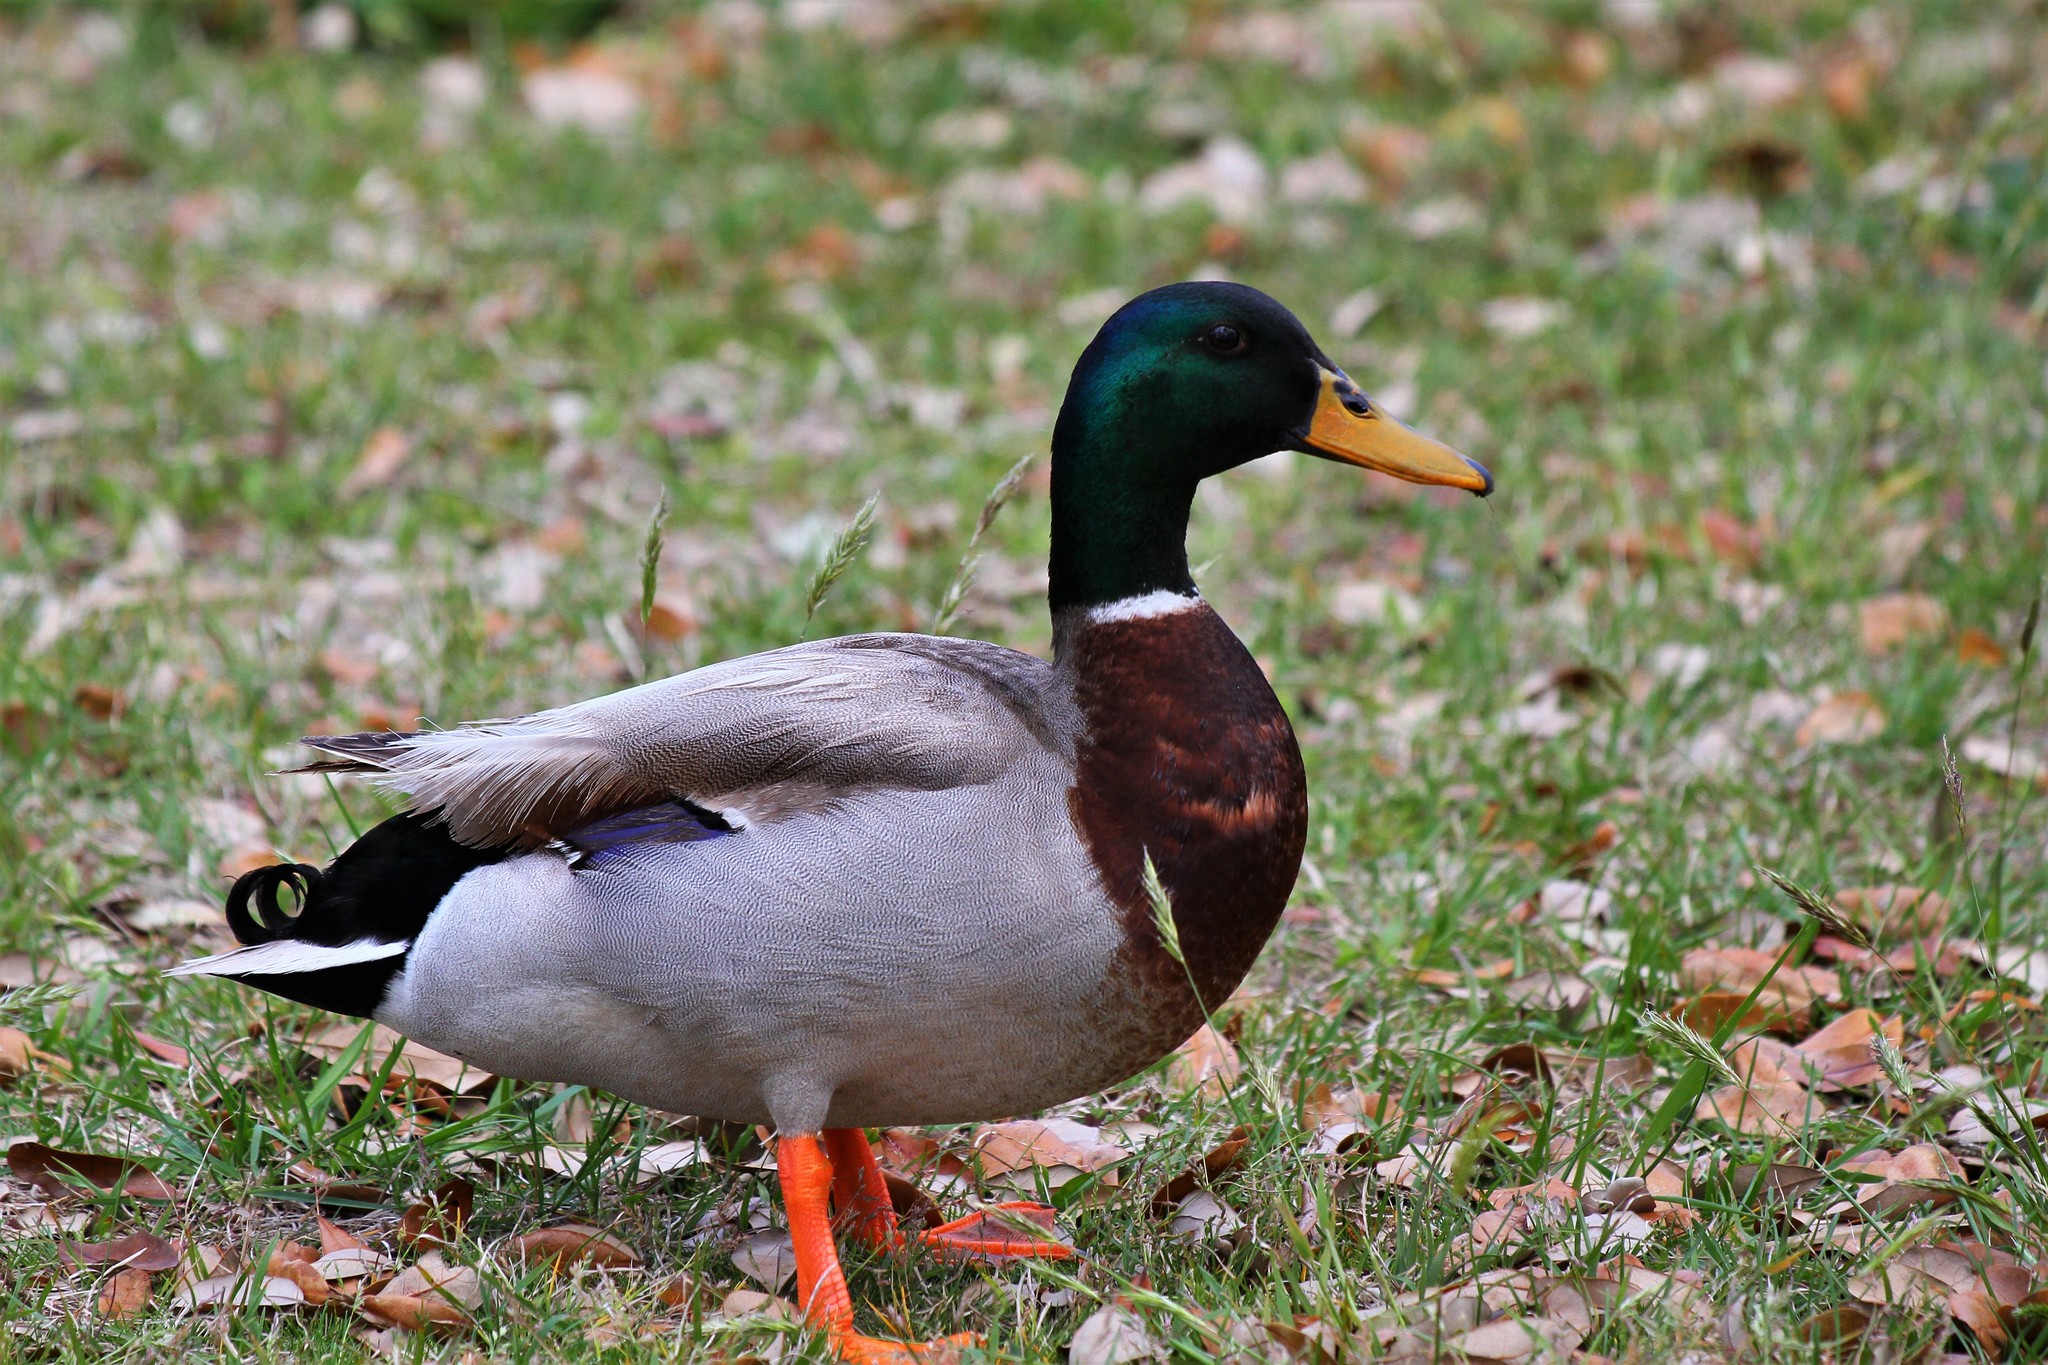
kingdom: Animalia
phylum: Chordata
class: Aves
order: Anseriformes
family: Anatidae
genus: Anas
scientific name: Anas platyrhynchos
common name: Mallard
